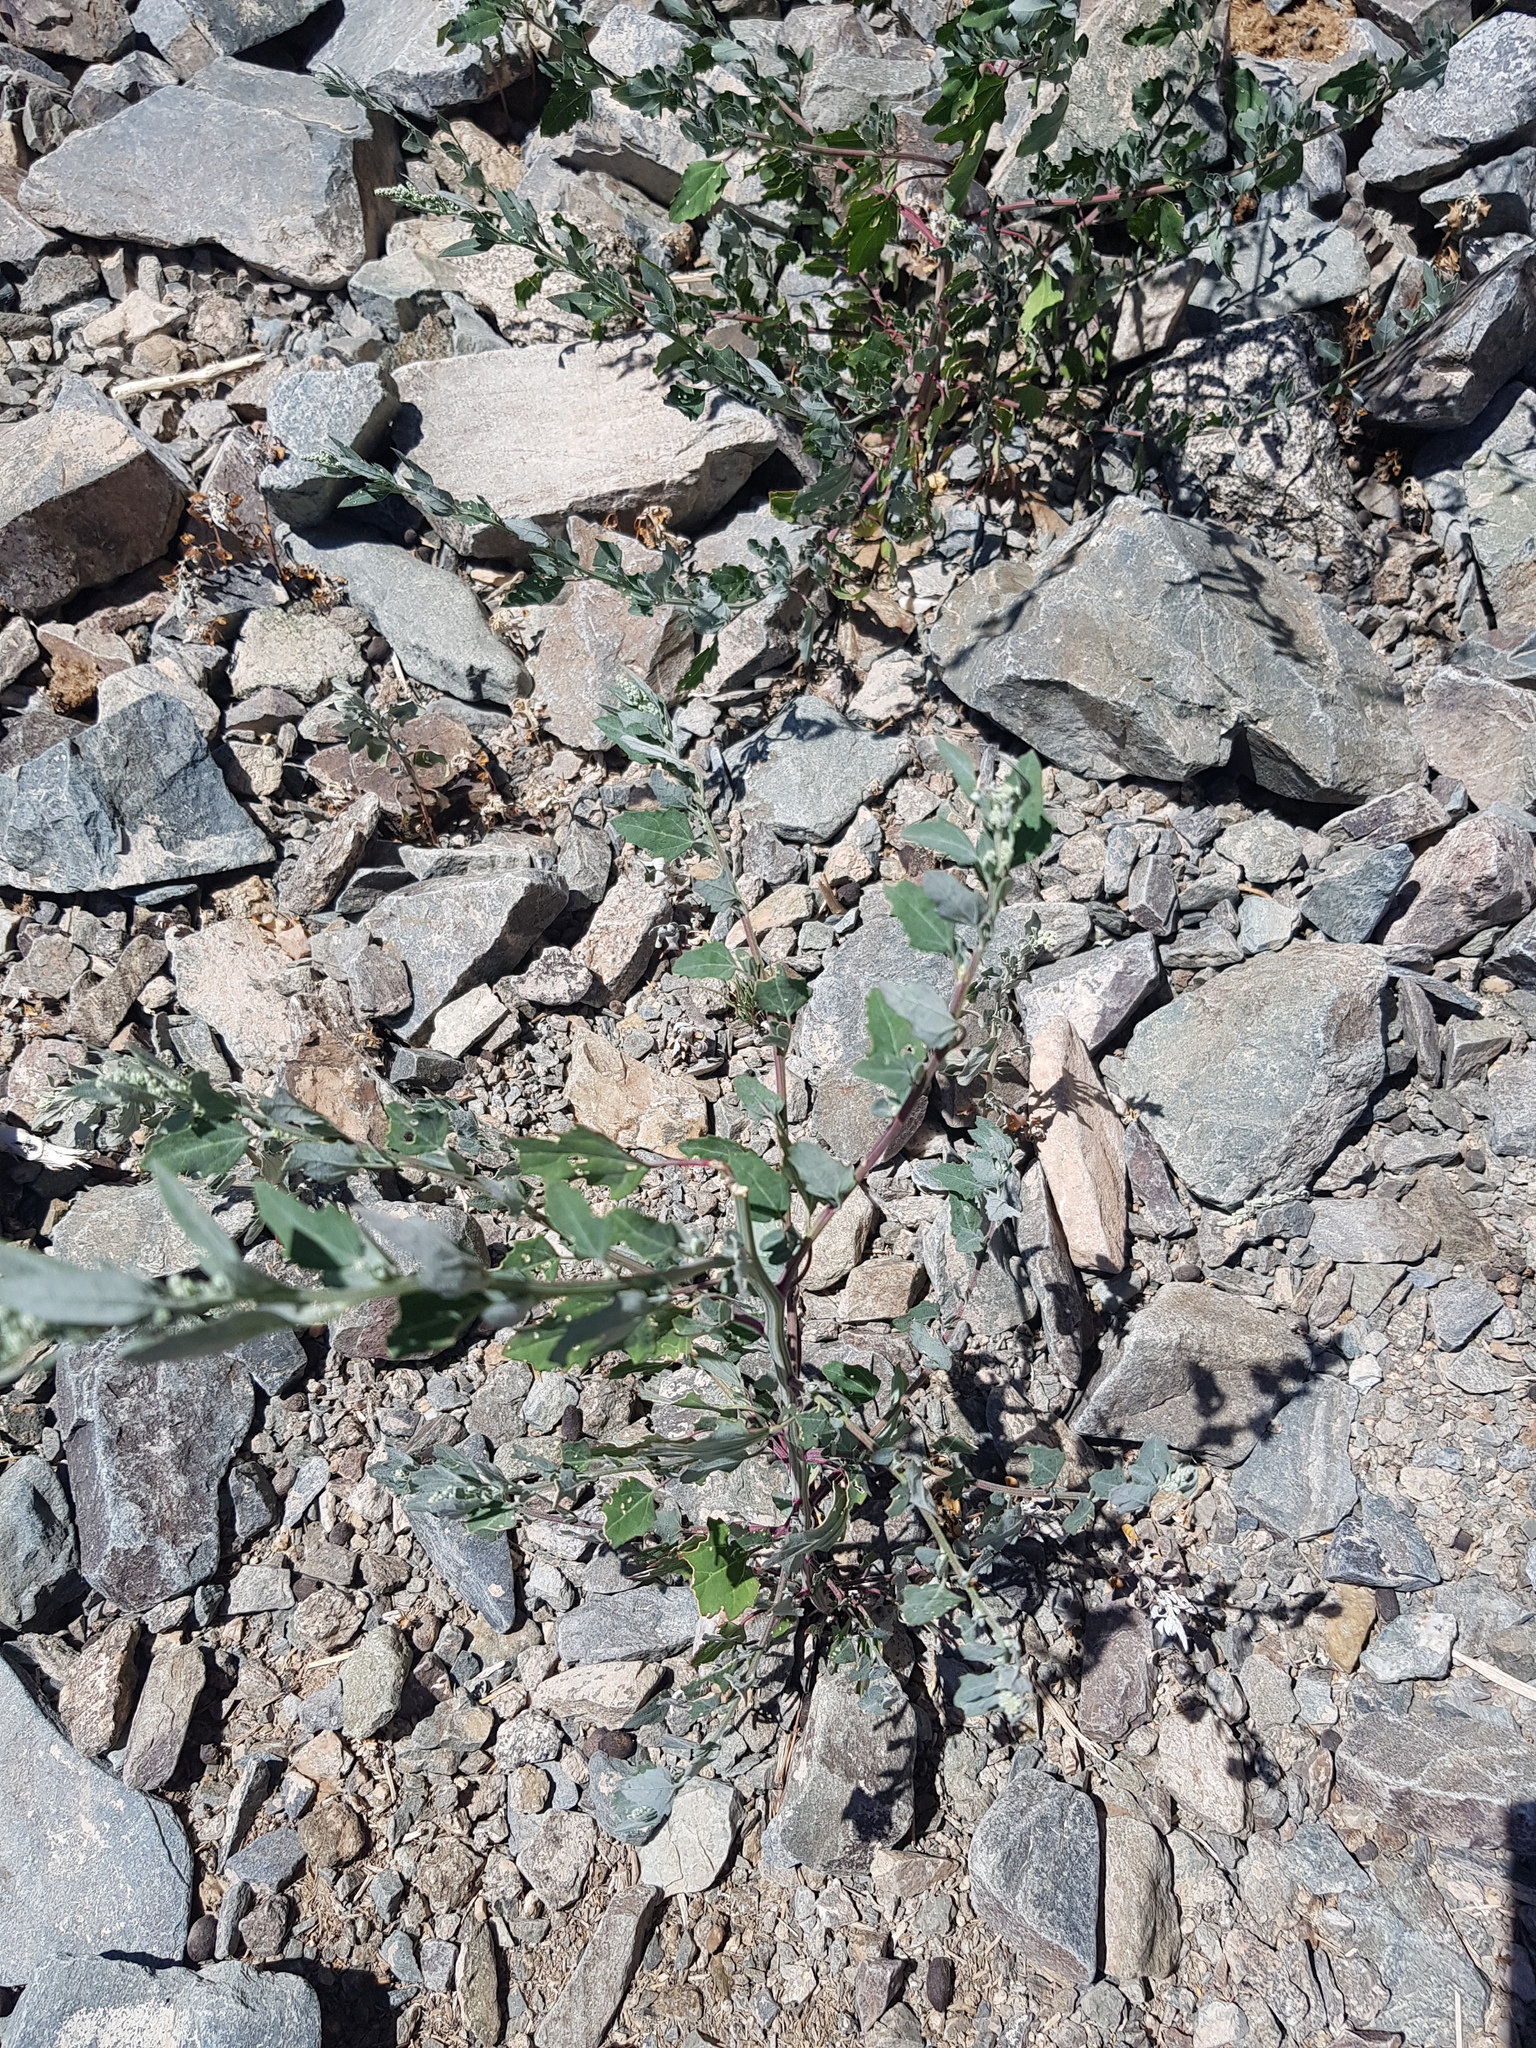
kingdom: Plantae
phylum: Tracheophyta
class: Magnoliopsida
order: Caryophyllales
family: Amaranthaceae
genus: Chenopodium
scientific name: Chenopodium album
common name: Fat-hen
